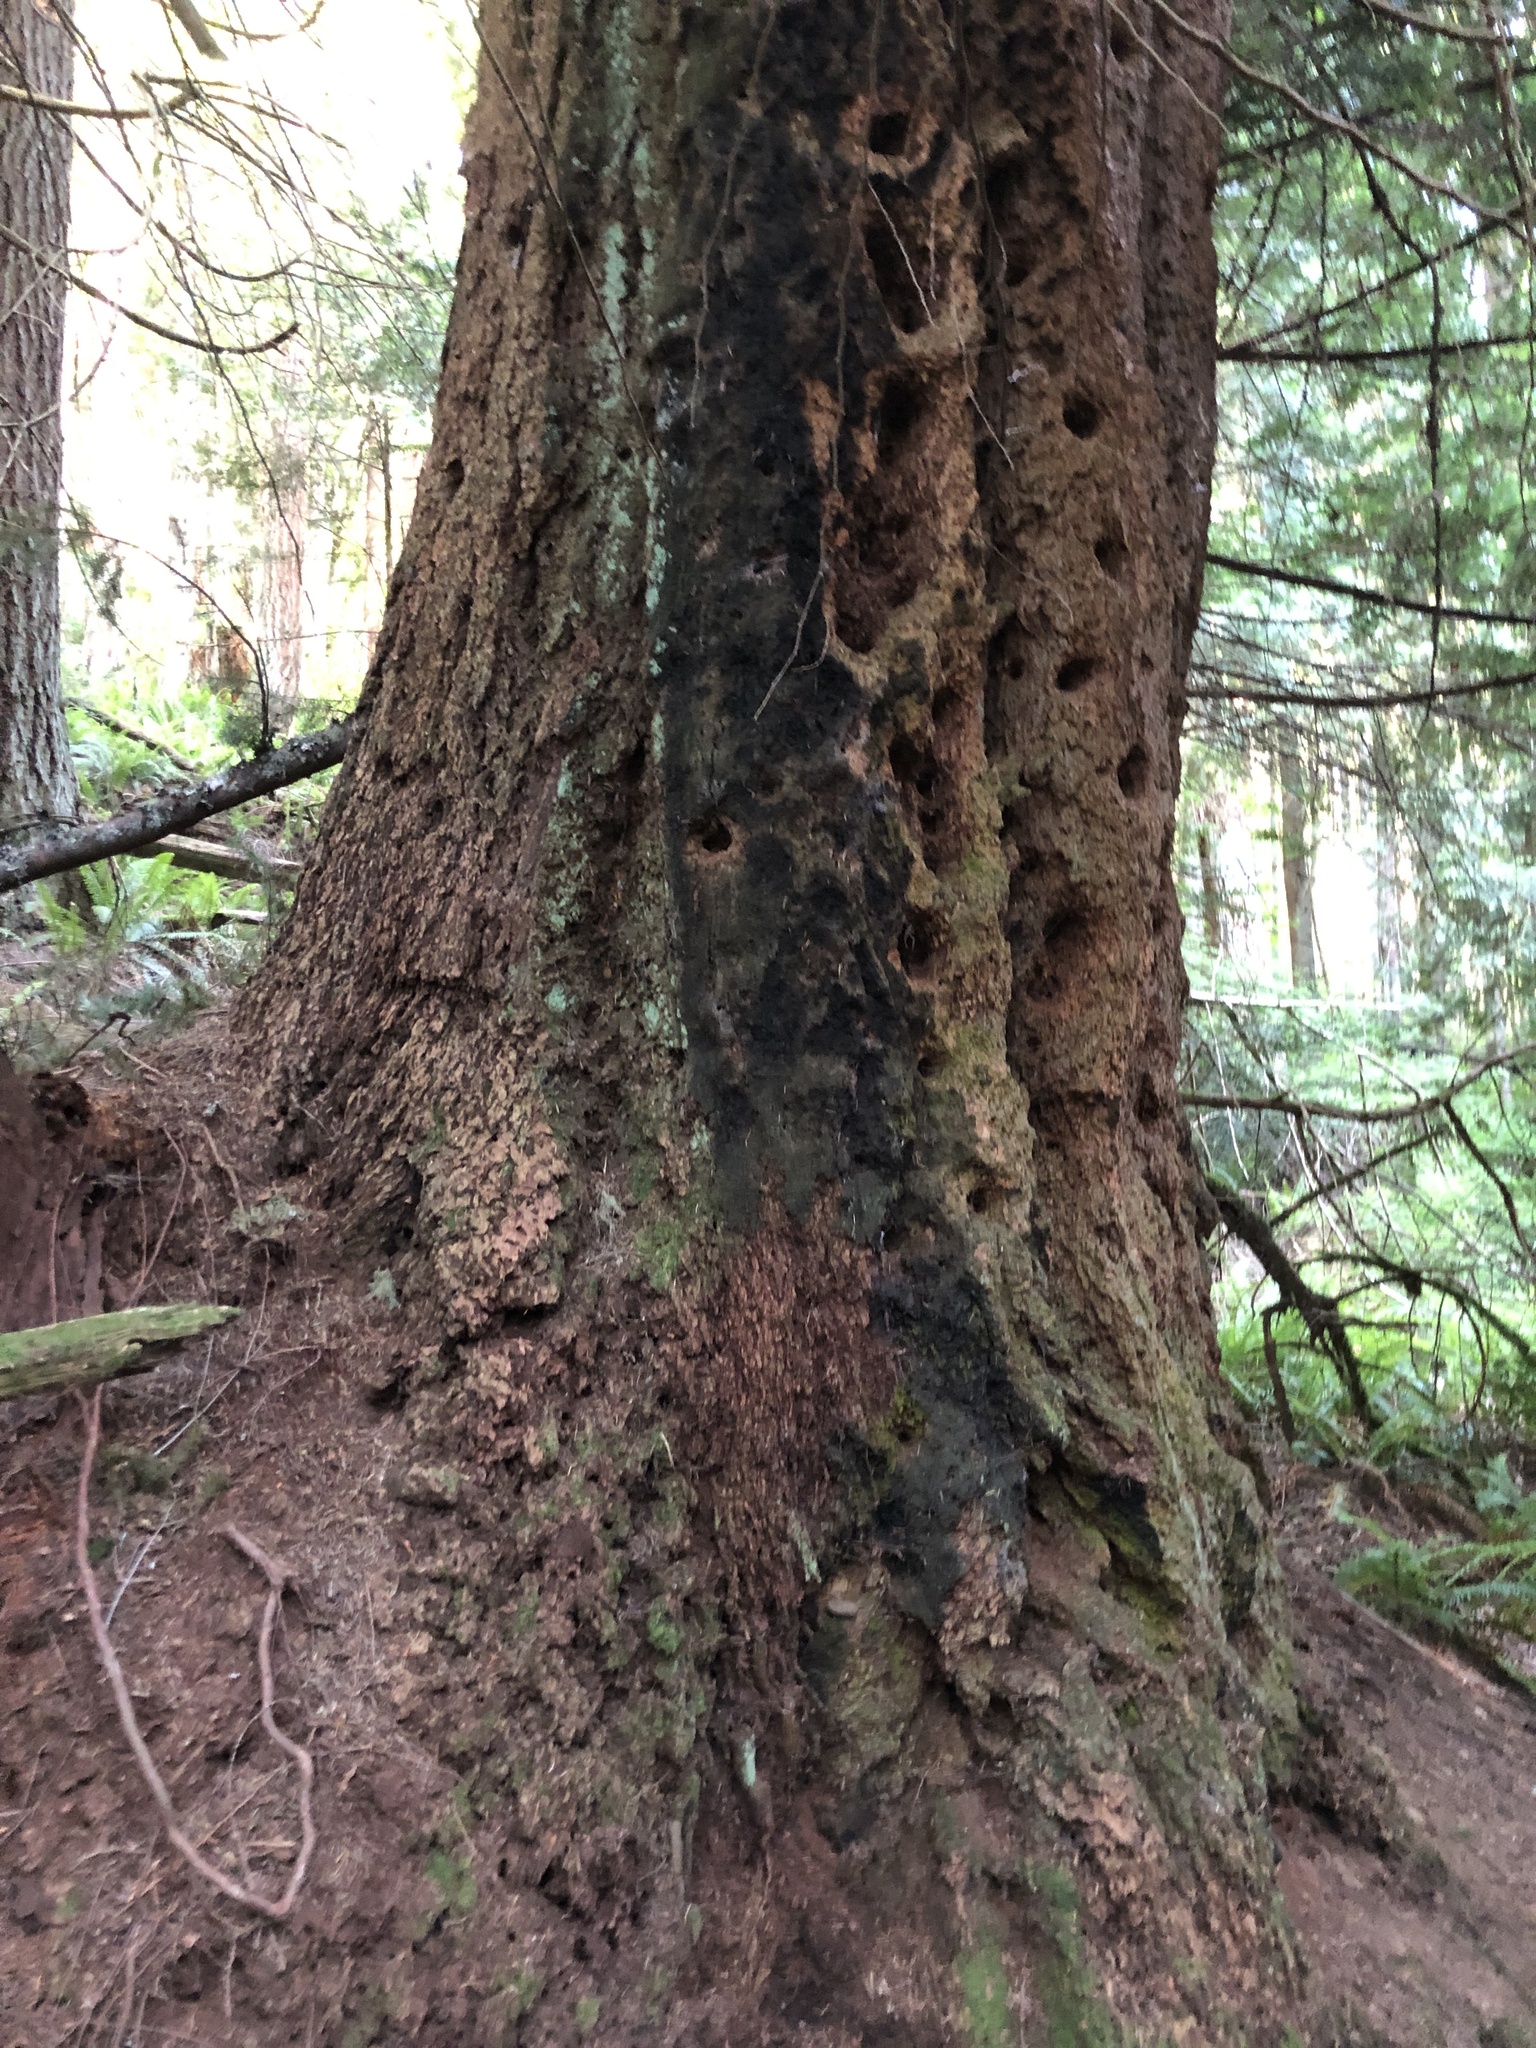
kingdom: Plantae
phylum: Tracheophyta
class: Pinopsida
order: Pinales
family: Pinaceae
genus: Pseudotsuga
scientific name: Pseudotsuga menziesii
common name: Douglas fir
